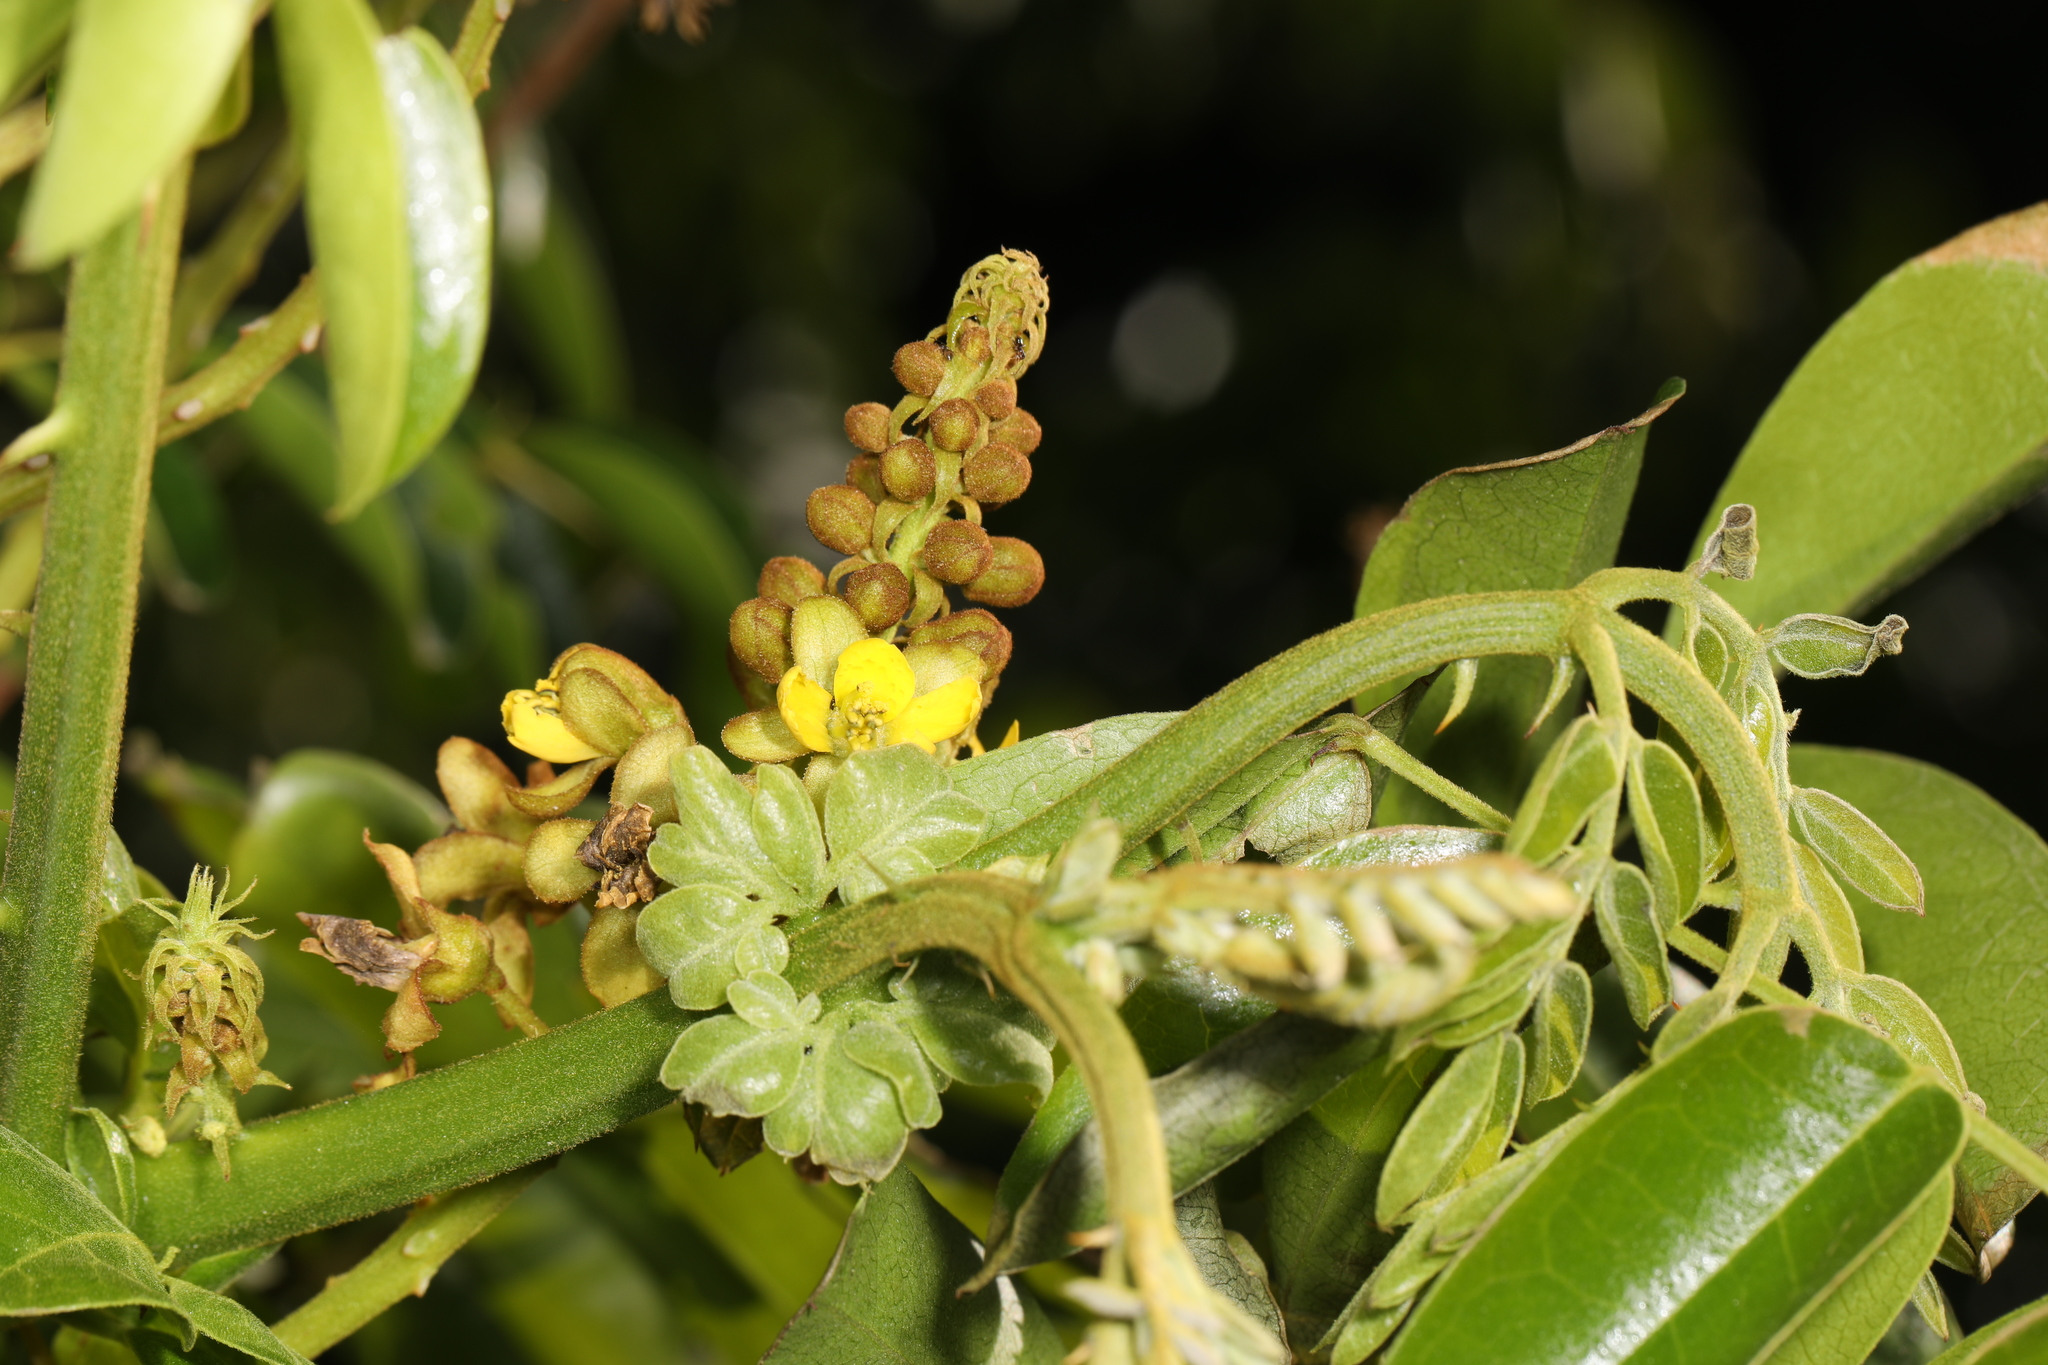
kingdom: Plantae
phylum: Tracheophyta
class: Magnoliopsida
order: Fabales
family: Fabaceae
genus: Guilandina
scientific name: Guilandina bonduc
